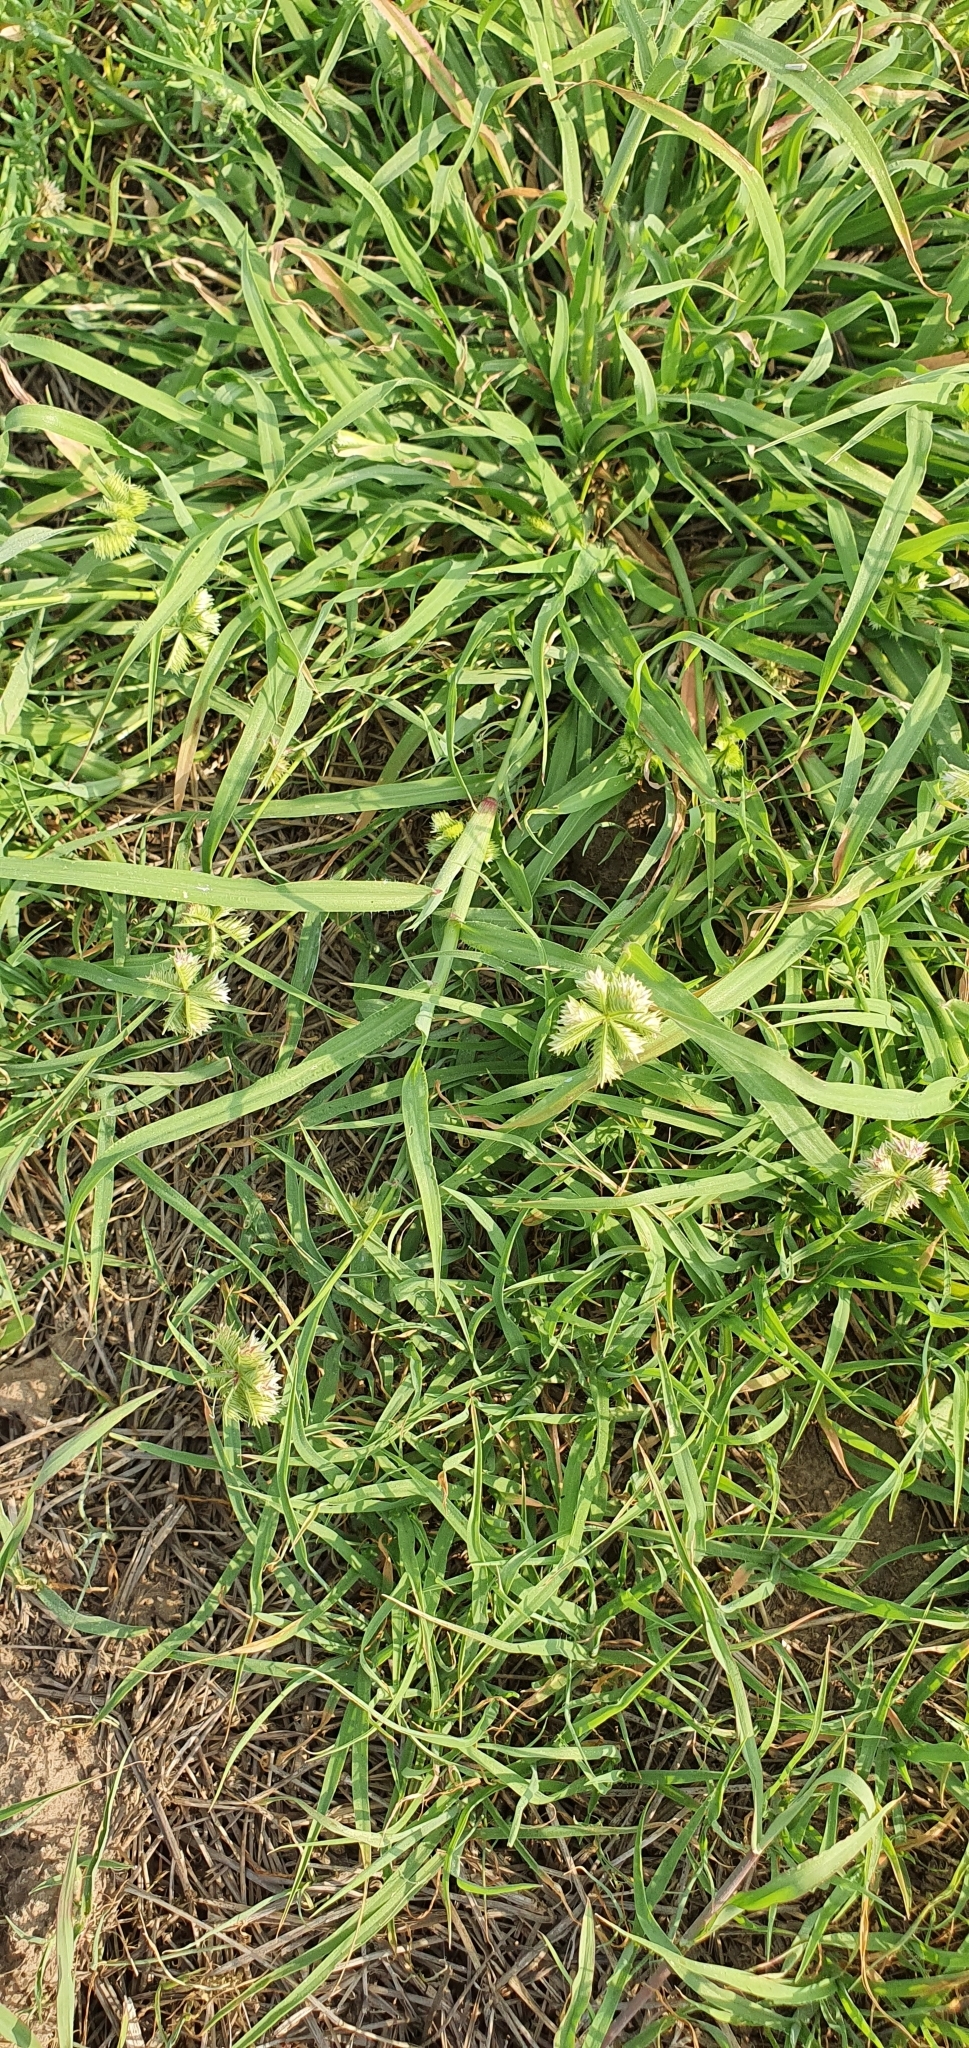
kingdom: Plantae
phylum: Tracheophyta
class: Liliopsida
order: Poales
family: Poaceae
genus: Dactyloctenium
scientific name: Dactyloctenium radulans
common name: Button-grass
